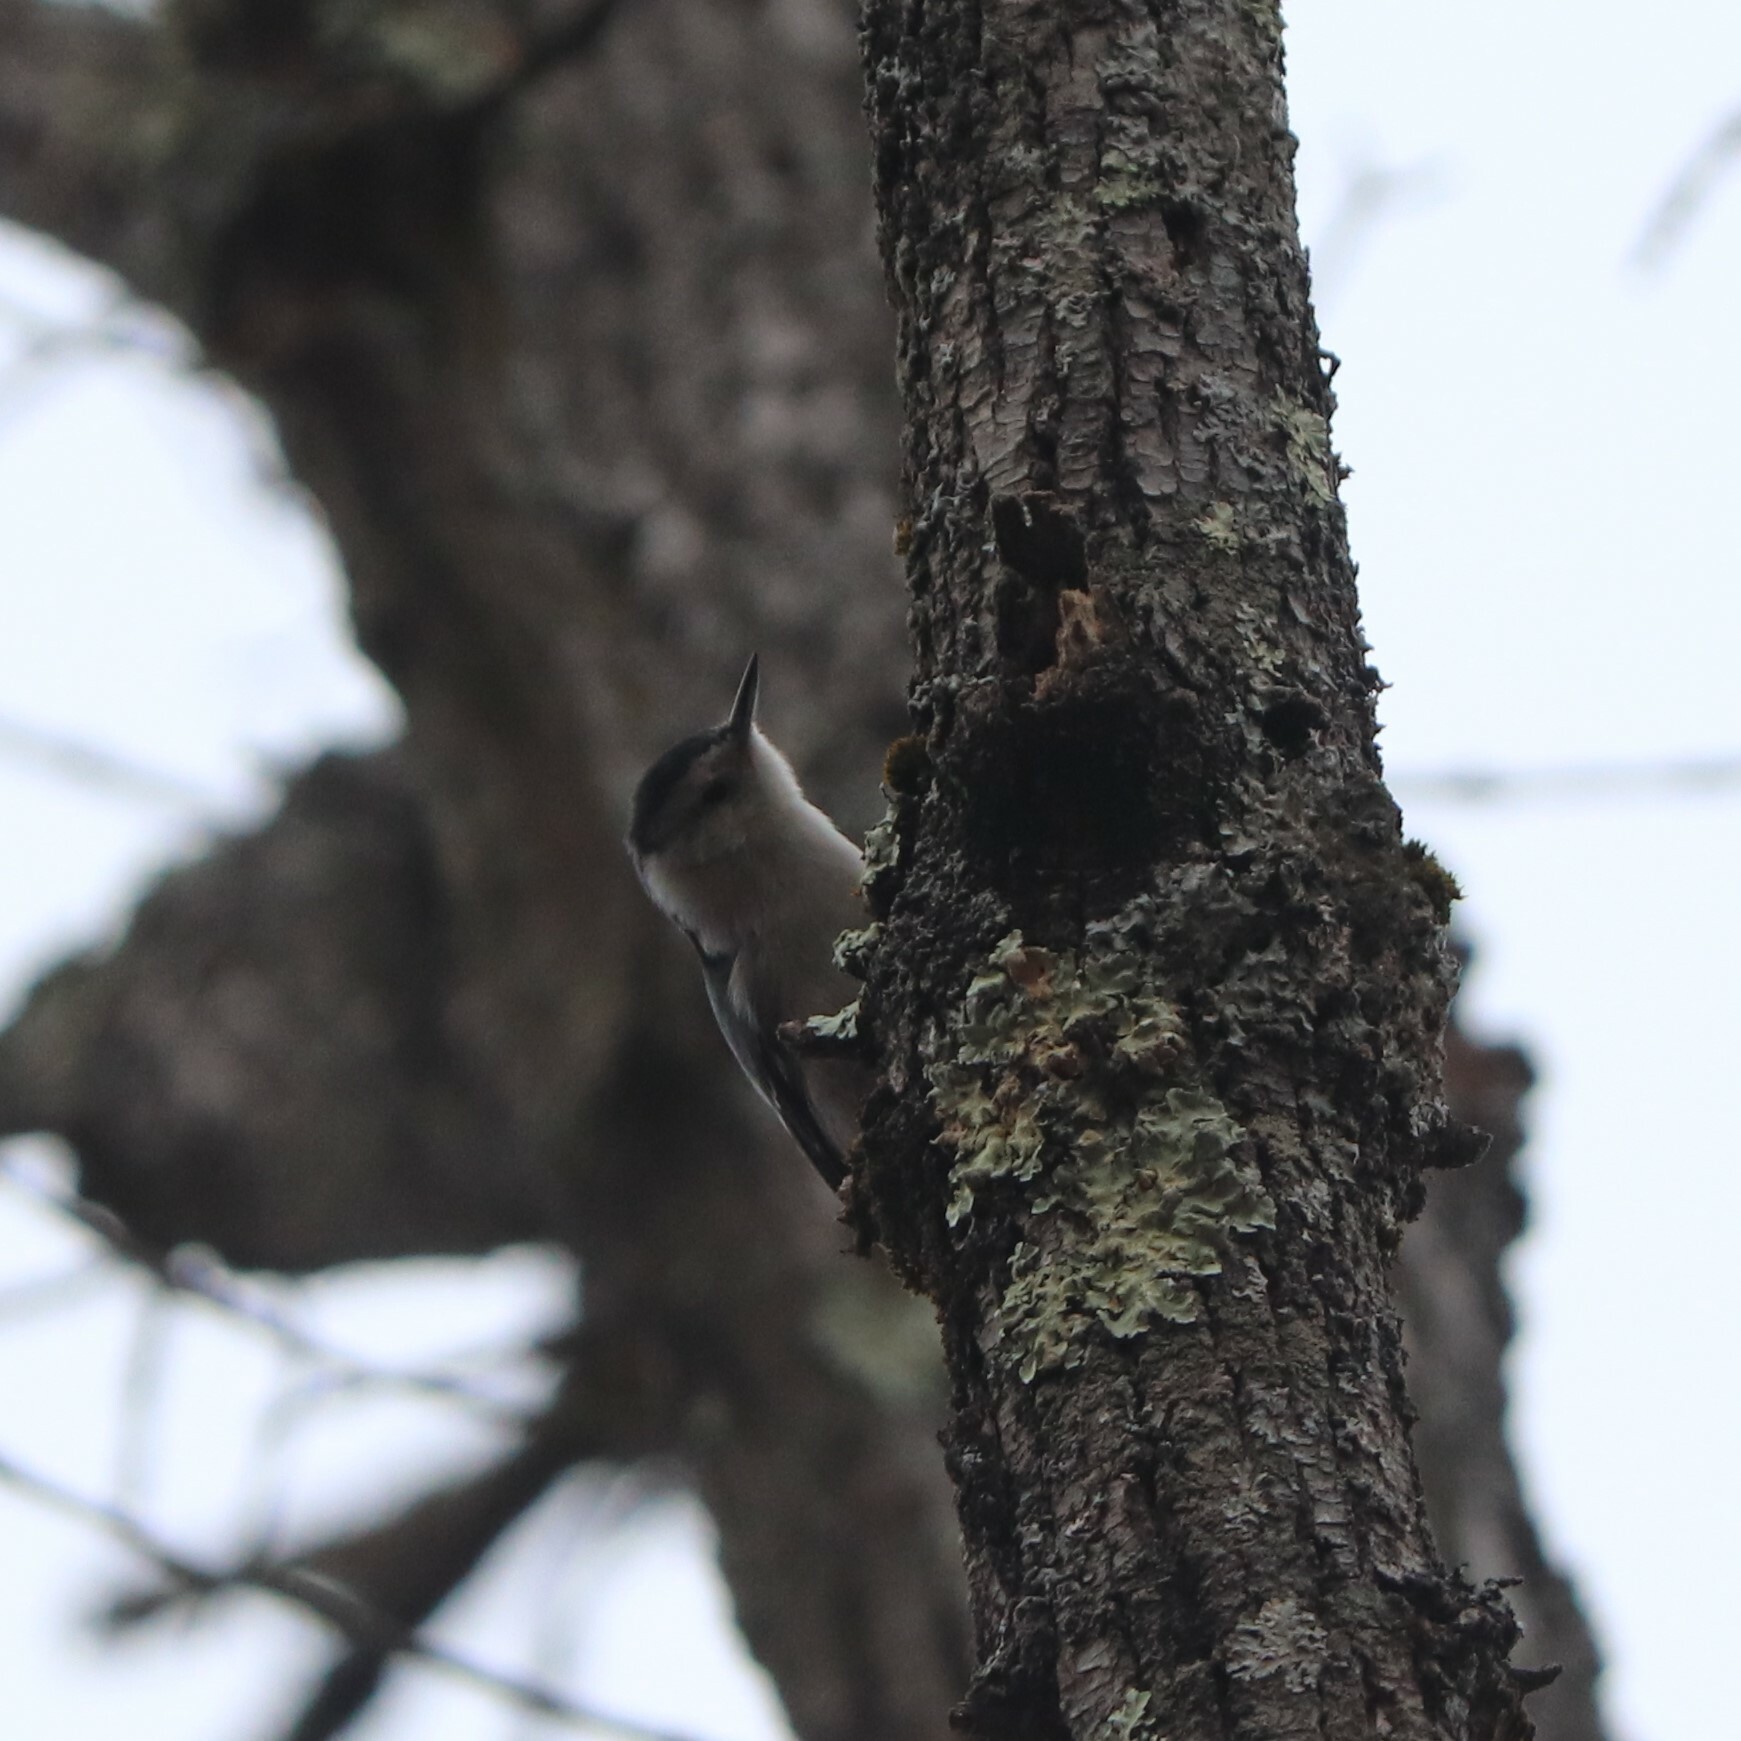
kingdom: Animalia
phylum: Chordata
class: Aves
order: Passeriformes
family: Sittidae
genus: Sitta
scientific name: Sitta carolinensis
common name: White-breasted nuthatch
